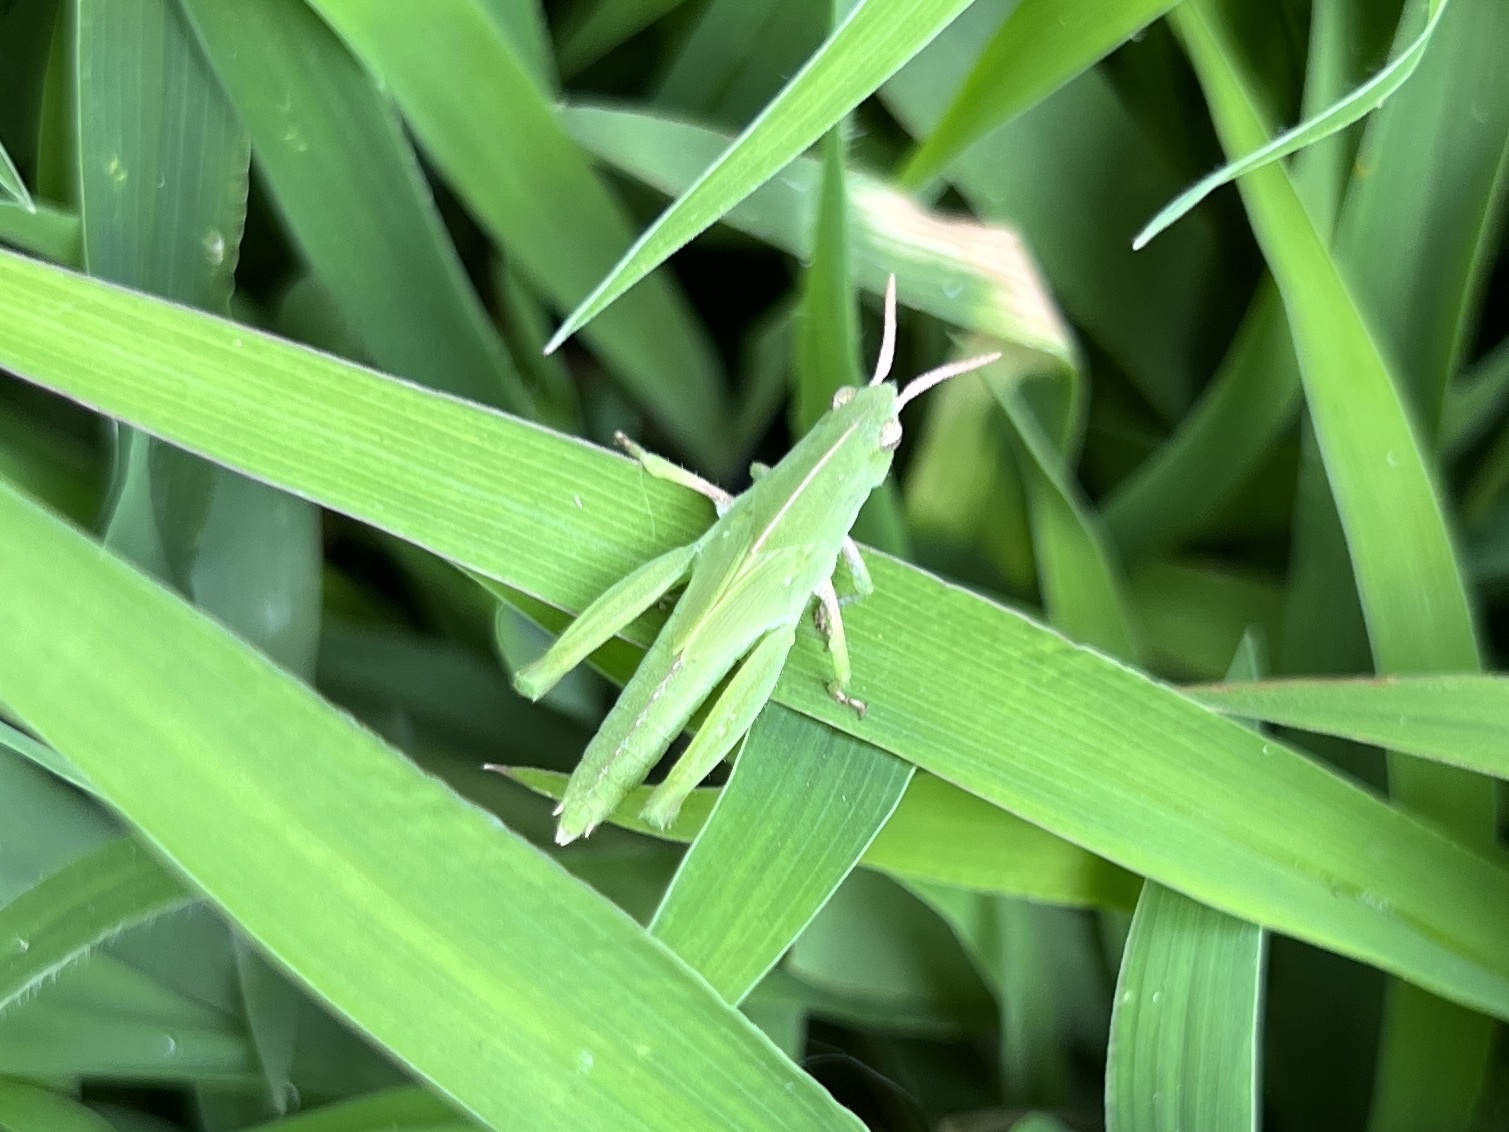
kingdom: Animalia
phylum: Arthropoda
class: Insecta
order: Orthoptera
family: Acrididae
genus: Chortophaga
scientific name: Chortophaga viridifasciata
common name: Green-striped grasshopper
